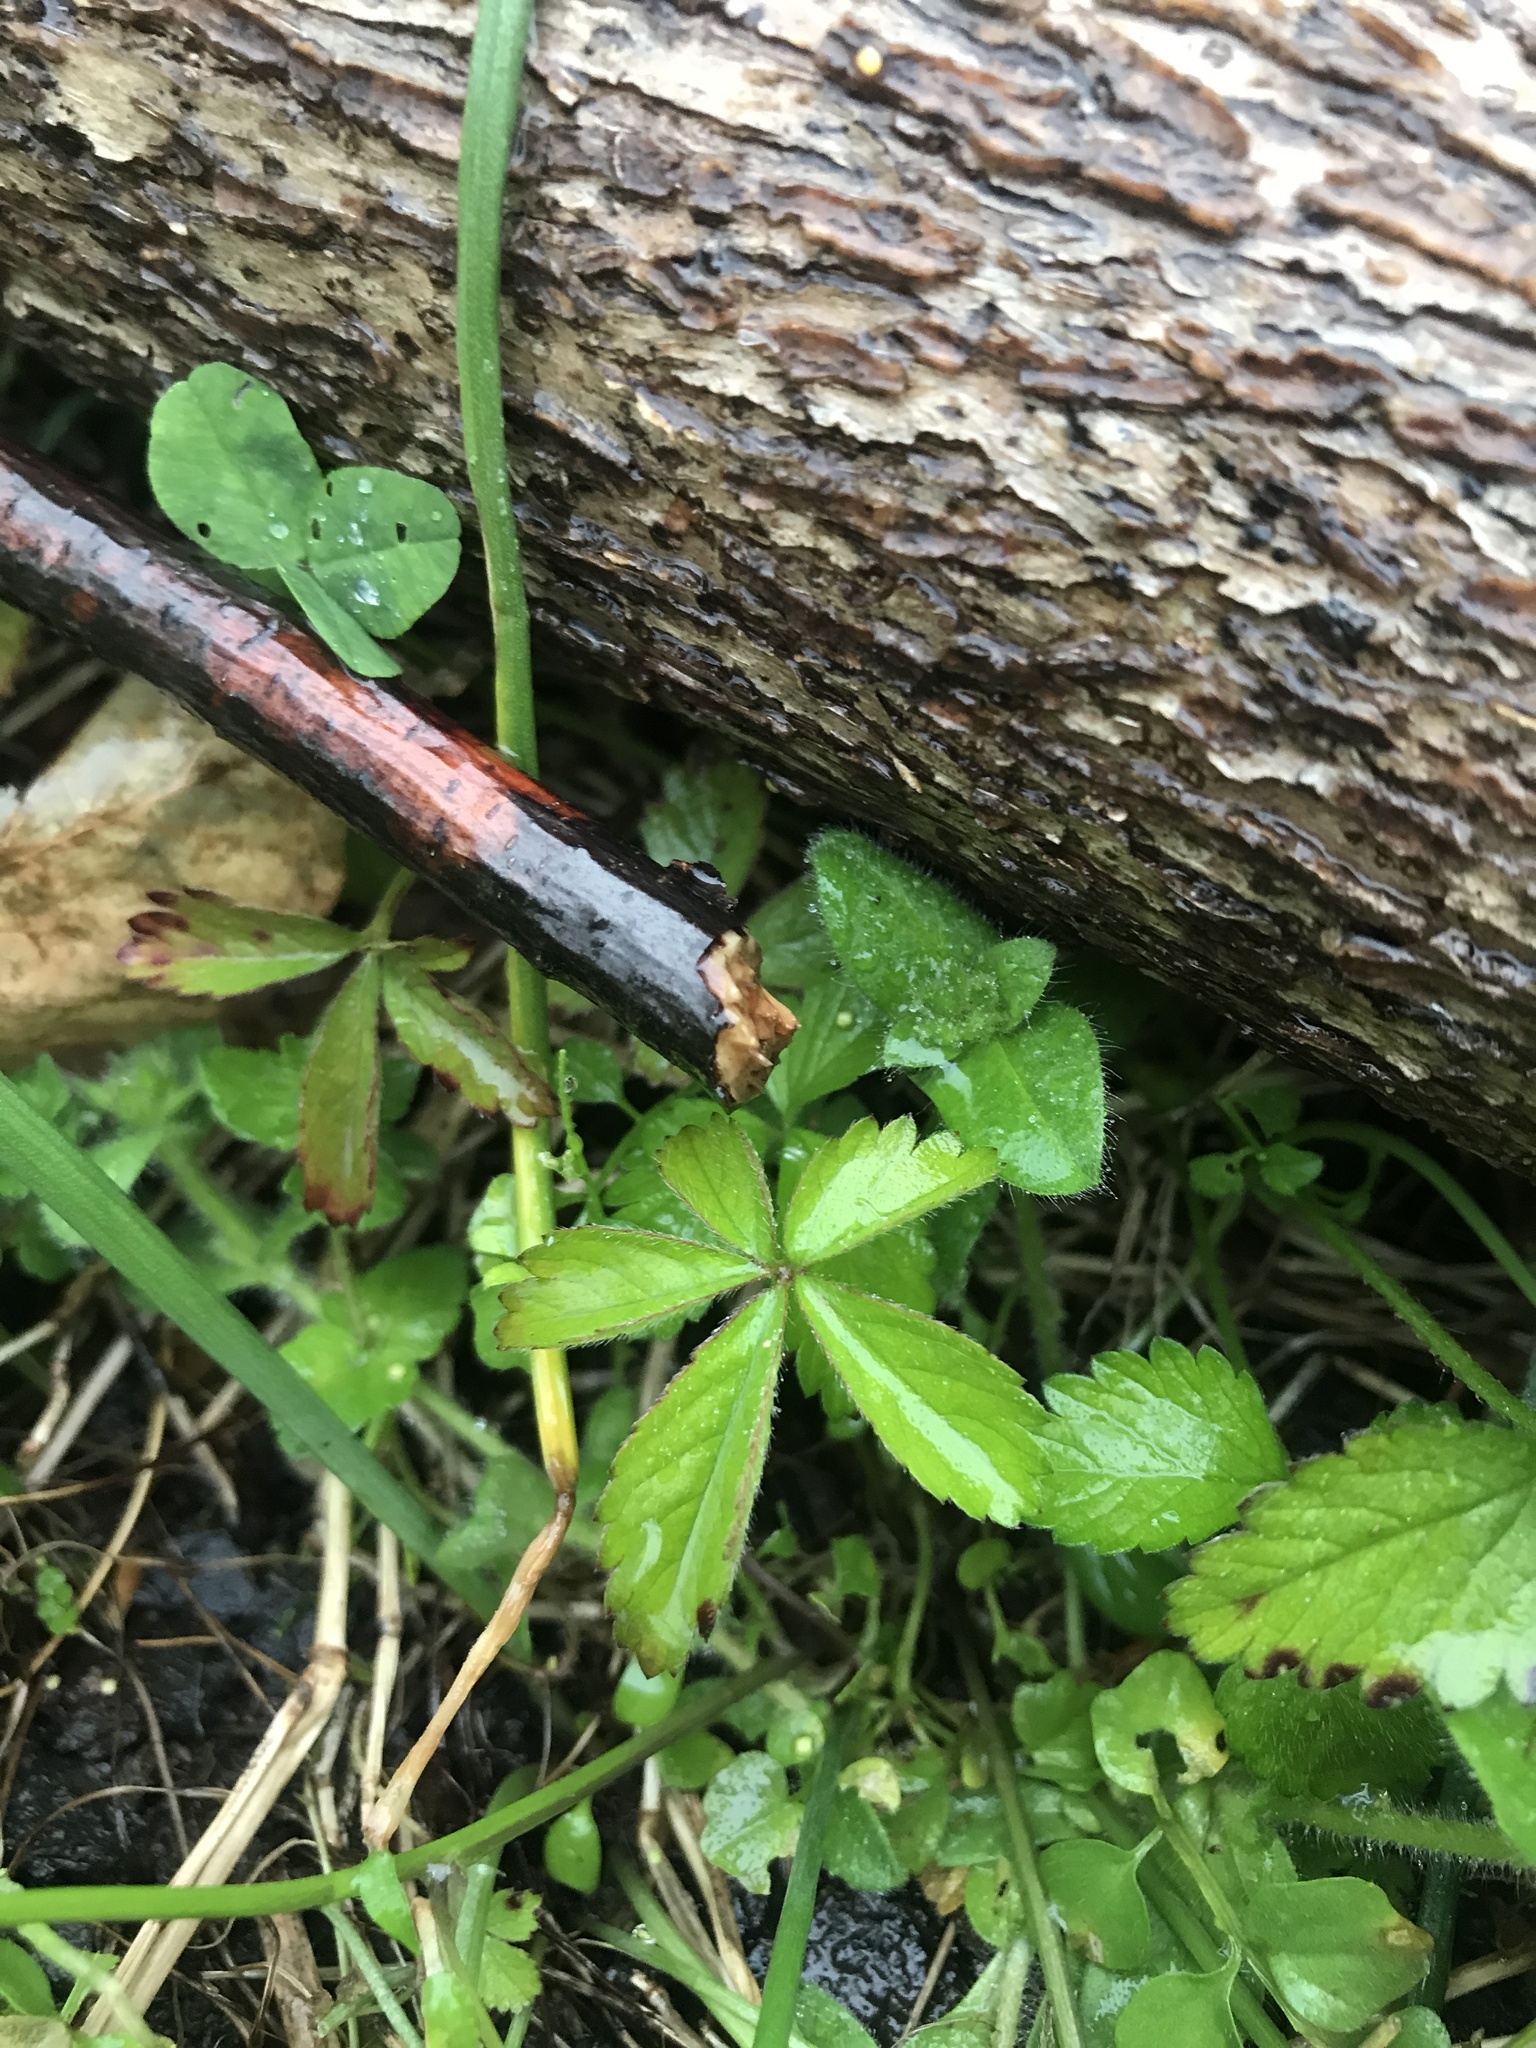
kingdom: Plantae
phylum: Tracheophyta
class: Magnoliopsida
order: Rosales
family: Rosaceae
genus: Potentilla
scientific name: Potentilla simplex
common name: Old field cinquefoil
